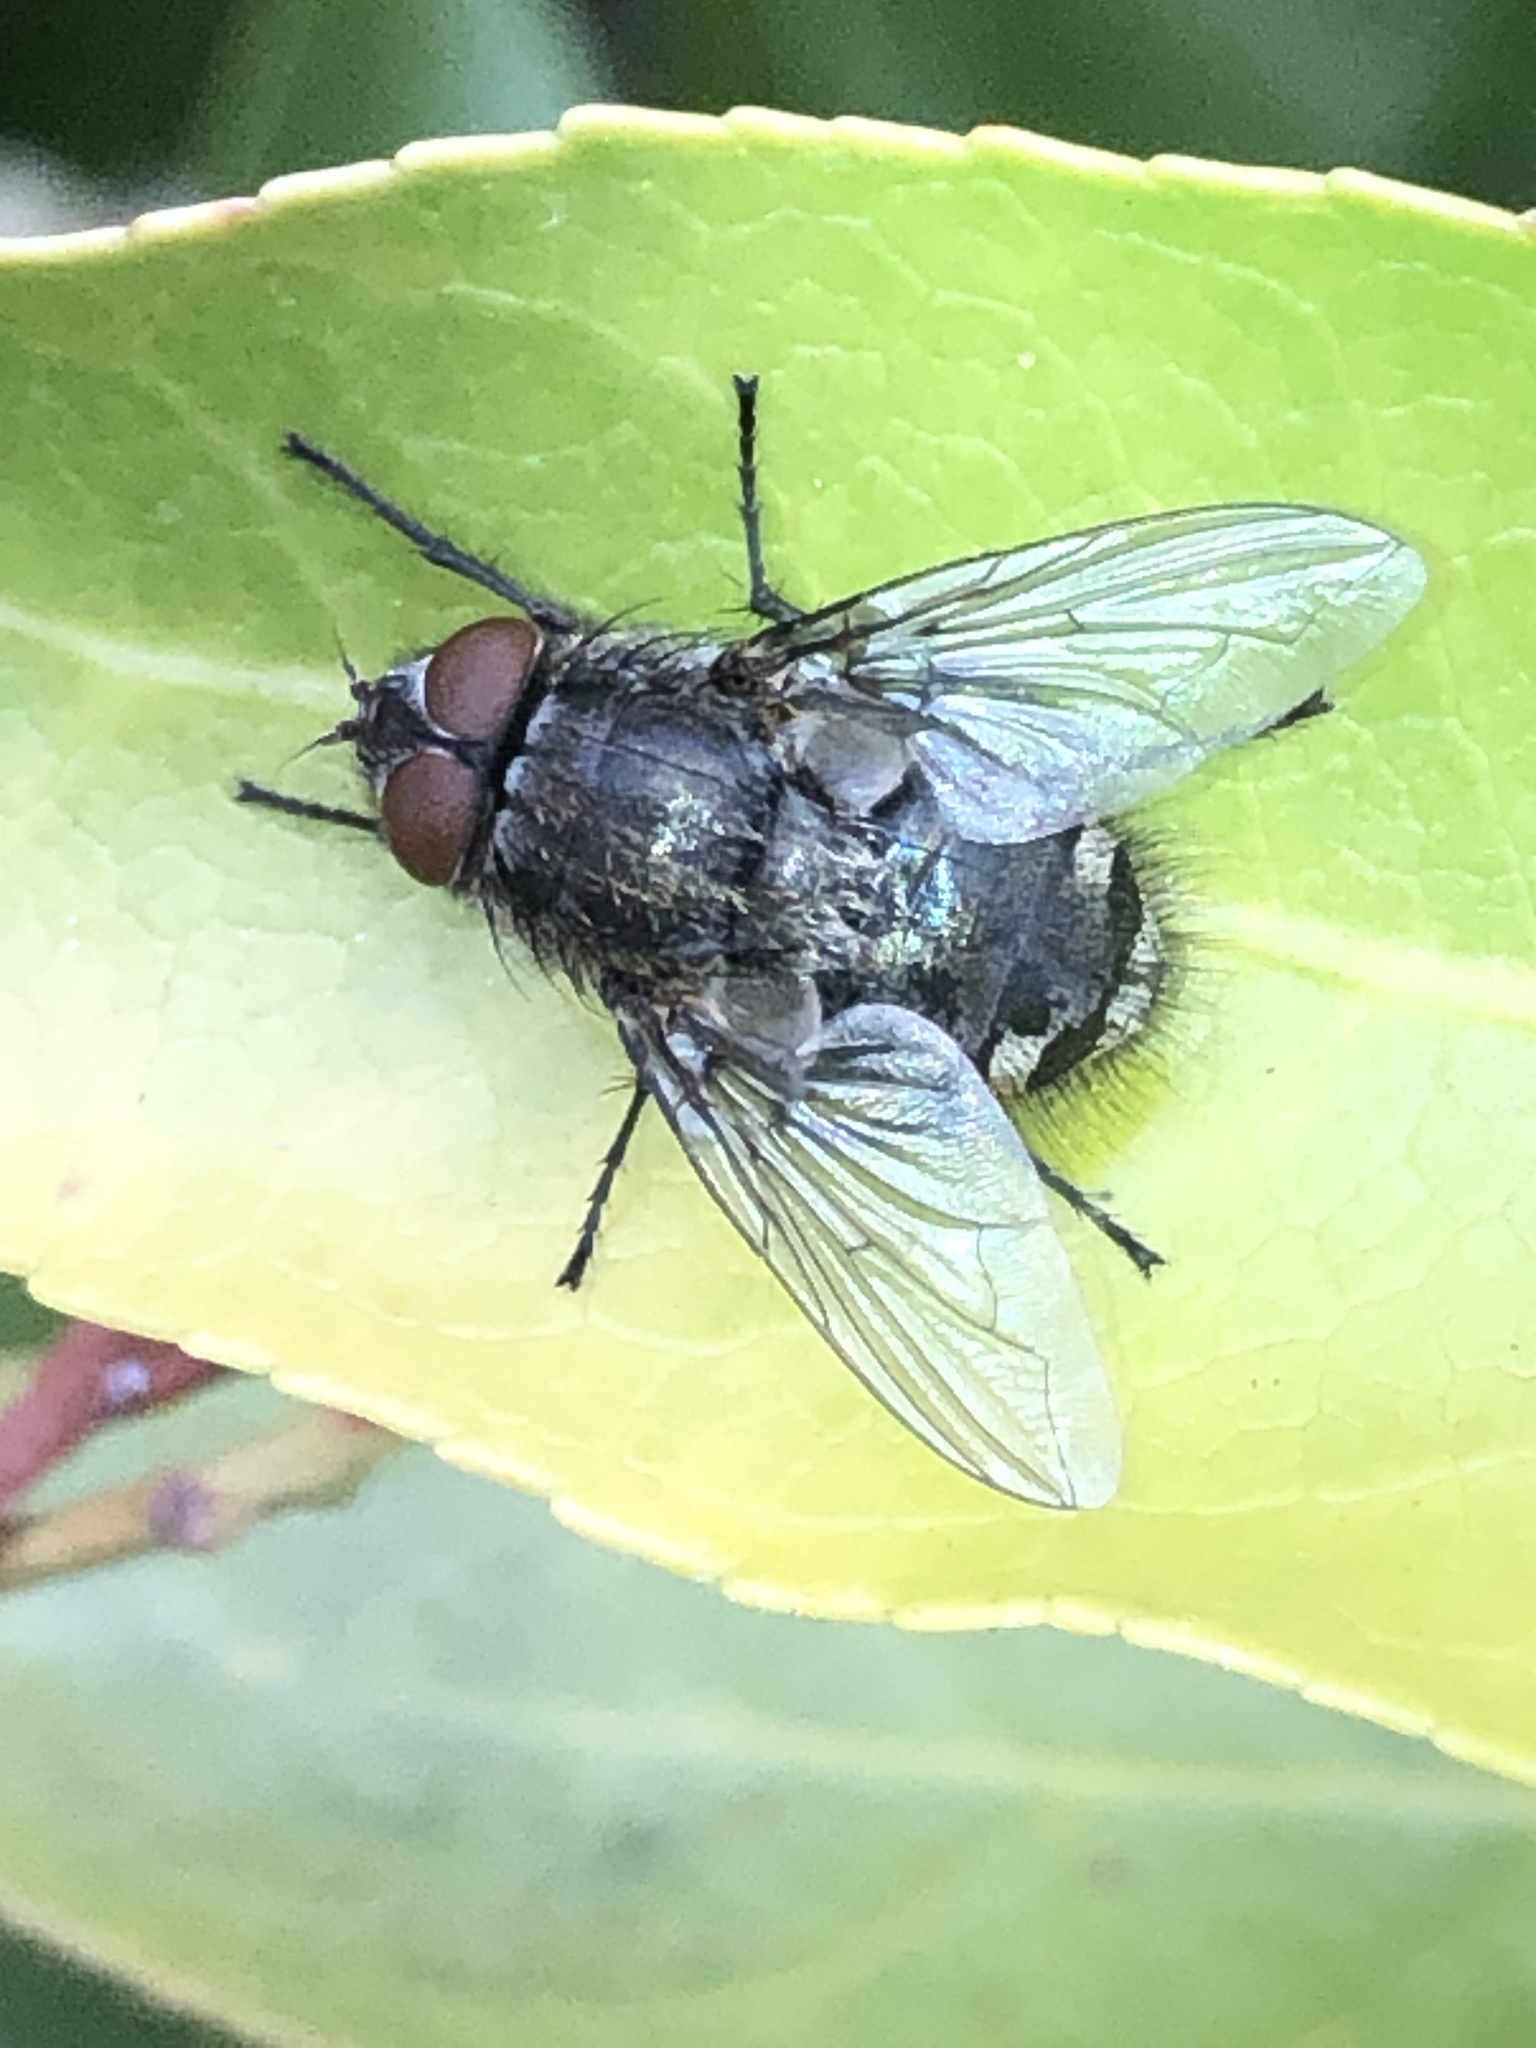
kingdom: Animalia
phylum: Arthropoda
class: Insecta
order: Diptera
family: Polleniidae
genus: Pollenia
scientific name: Pollenia
